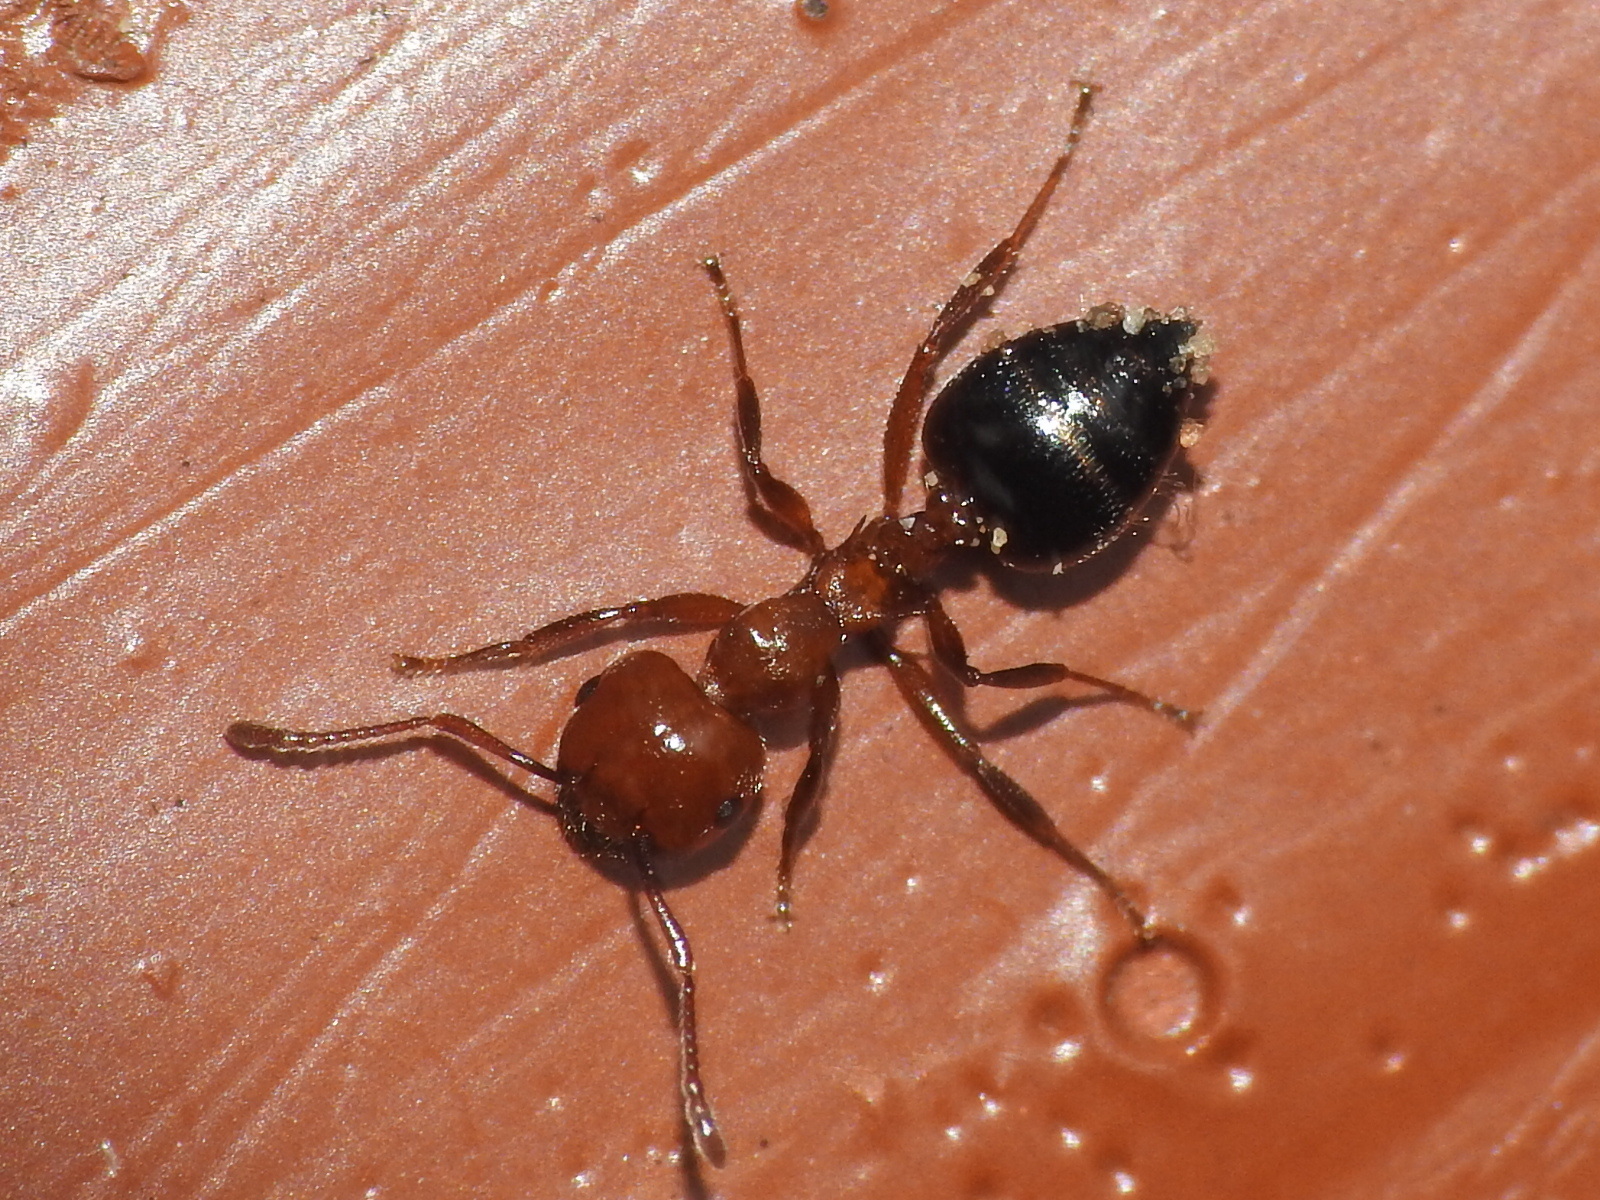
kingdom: Animalia
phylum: Arthropoda
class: Insecta
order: Hymenoptera
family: Formicidae
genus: Crematogaster
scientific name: Crematogaster laeviuscula
